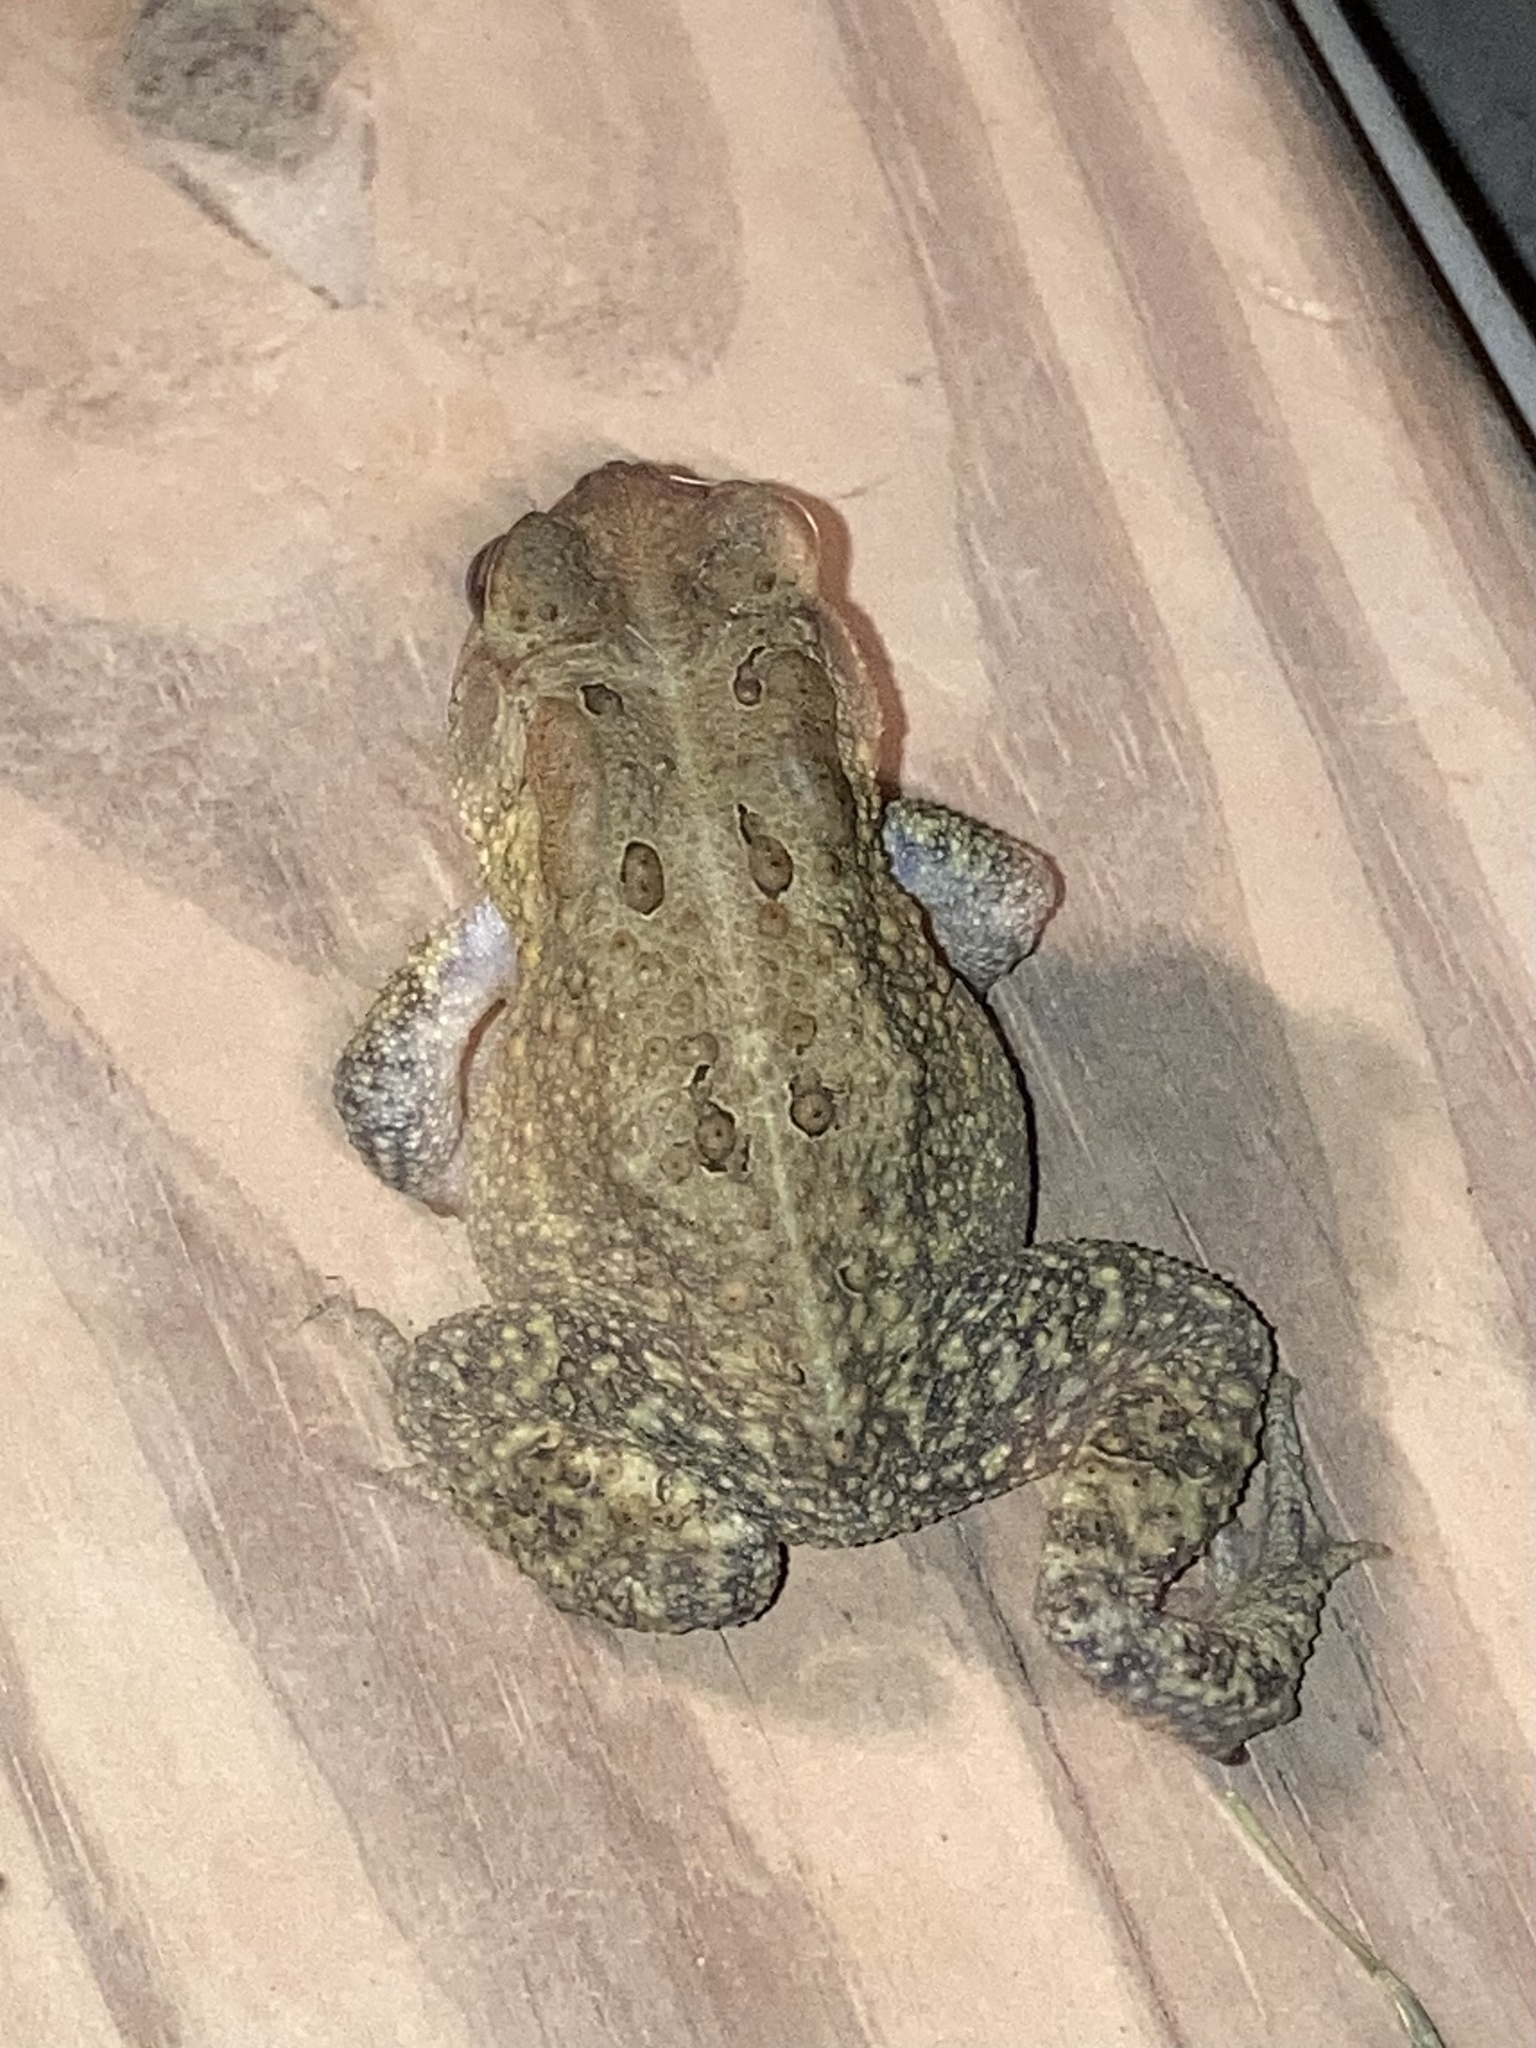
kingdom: Animalia
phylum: Chordata
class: Amphibia
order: Anura
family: Bufonidae
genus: Anaxyrus
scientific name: Anaxyrus americanus
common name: American toad
